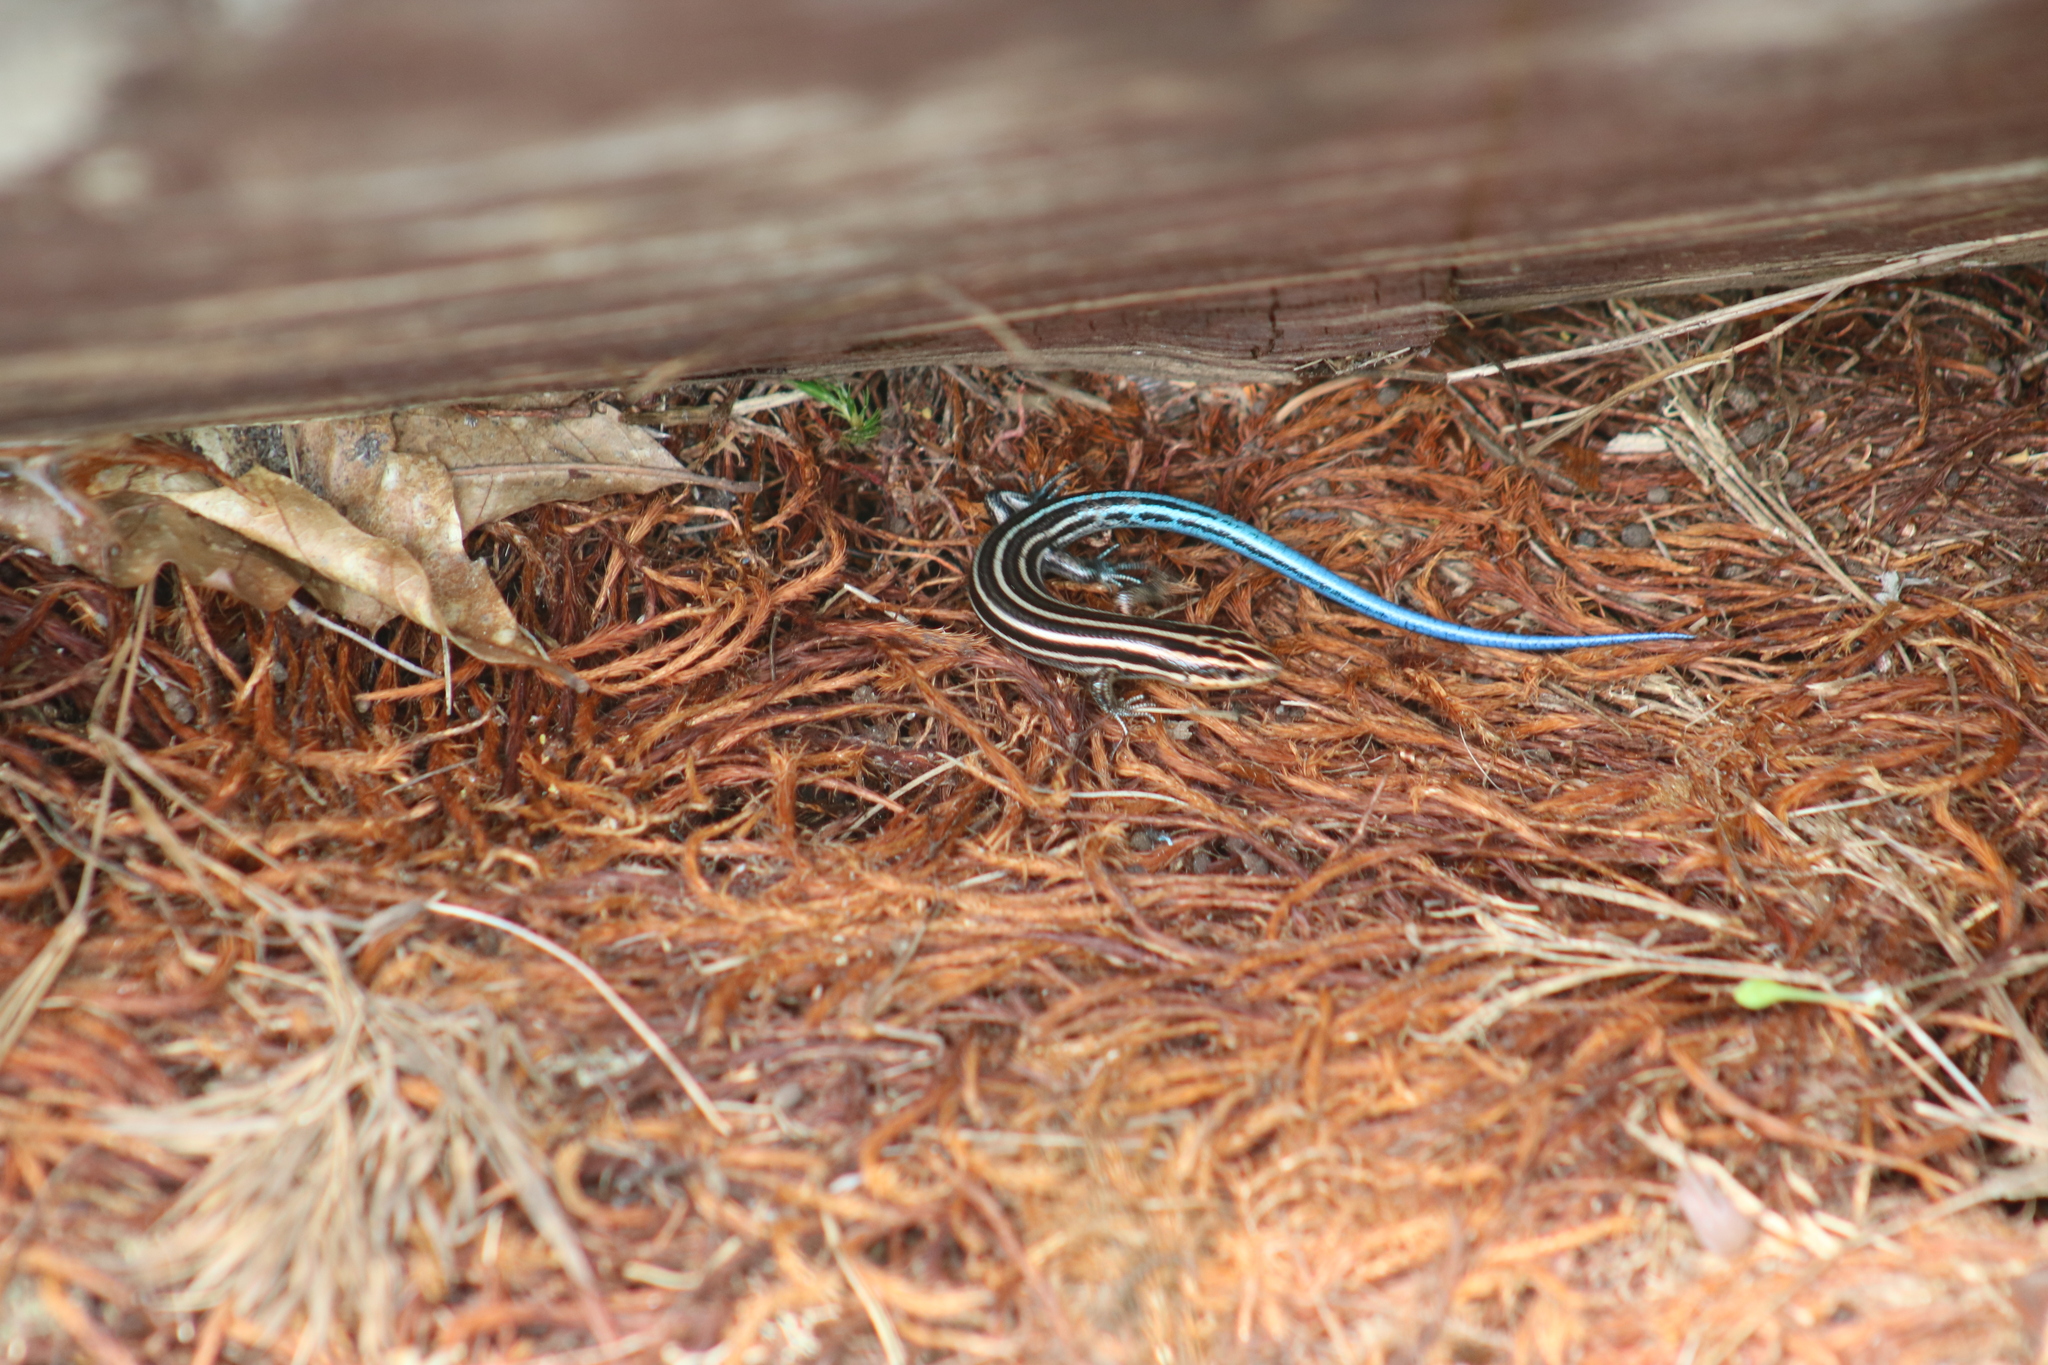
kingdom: Animalia
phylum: Chordata
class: Squamata
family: Scincidae
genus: Plestiodon
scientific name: Plestiodon fasciatus
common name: Five-lined skink
